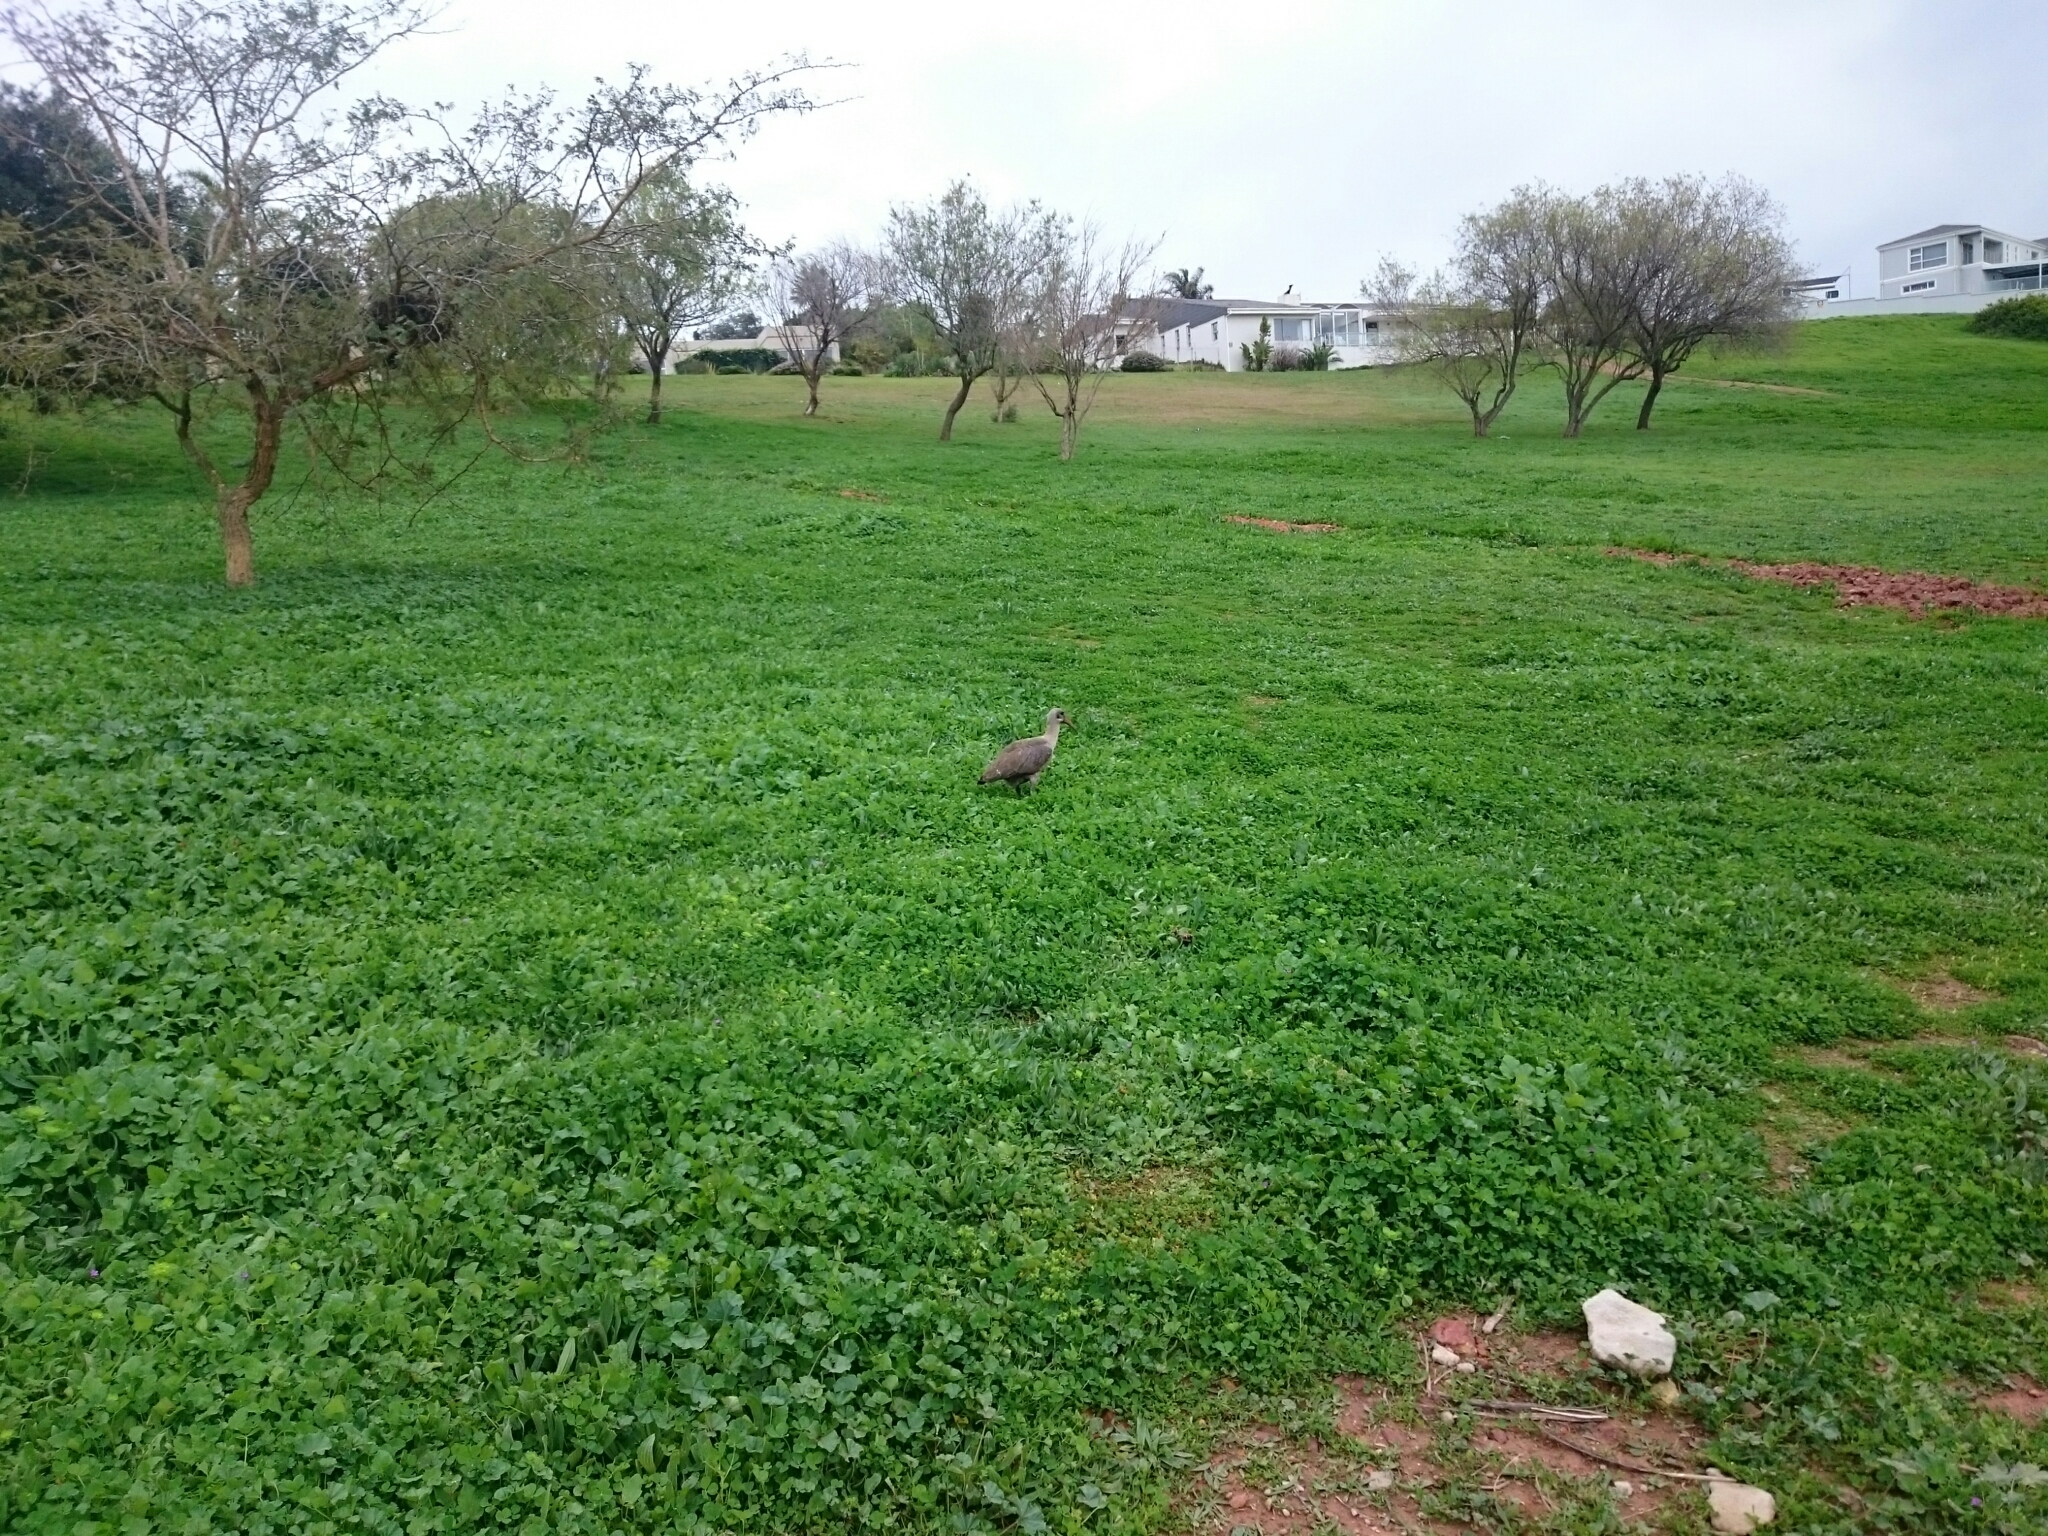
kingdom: Animalia
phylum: Chordata
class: Aves
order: Pelecaniformes
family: Threskiornithidae
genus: Bostrychia
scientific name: Bostrychia hagedash
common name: Hadada ibis
